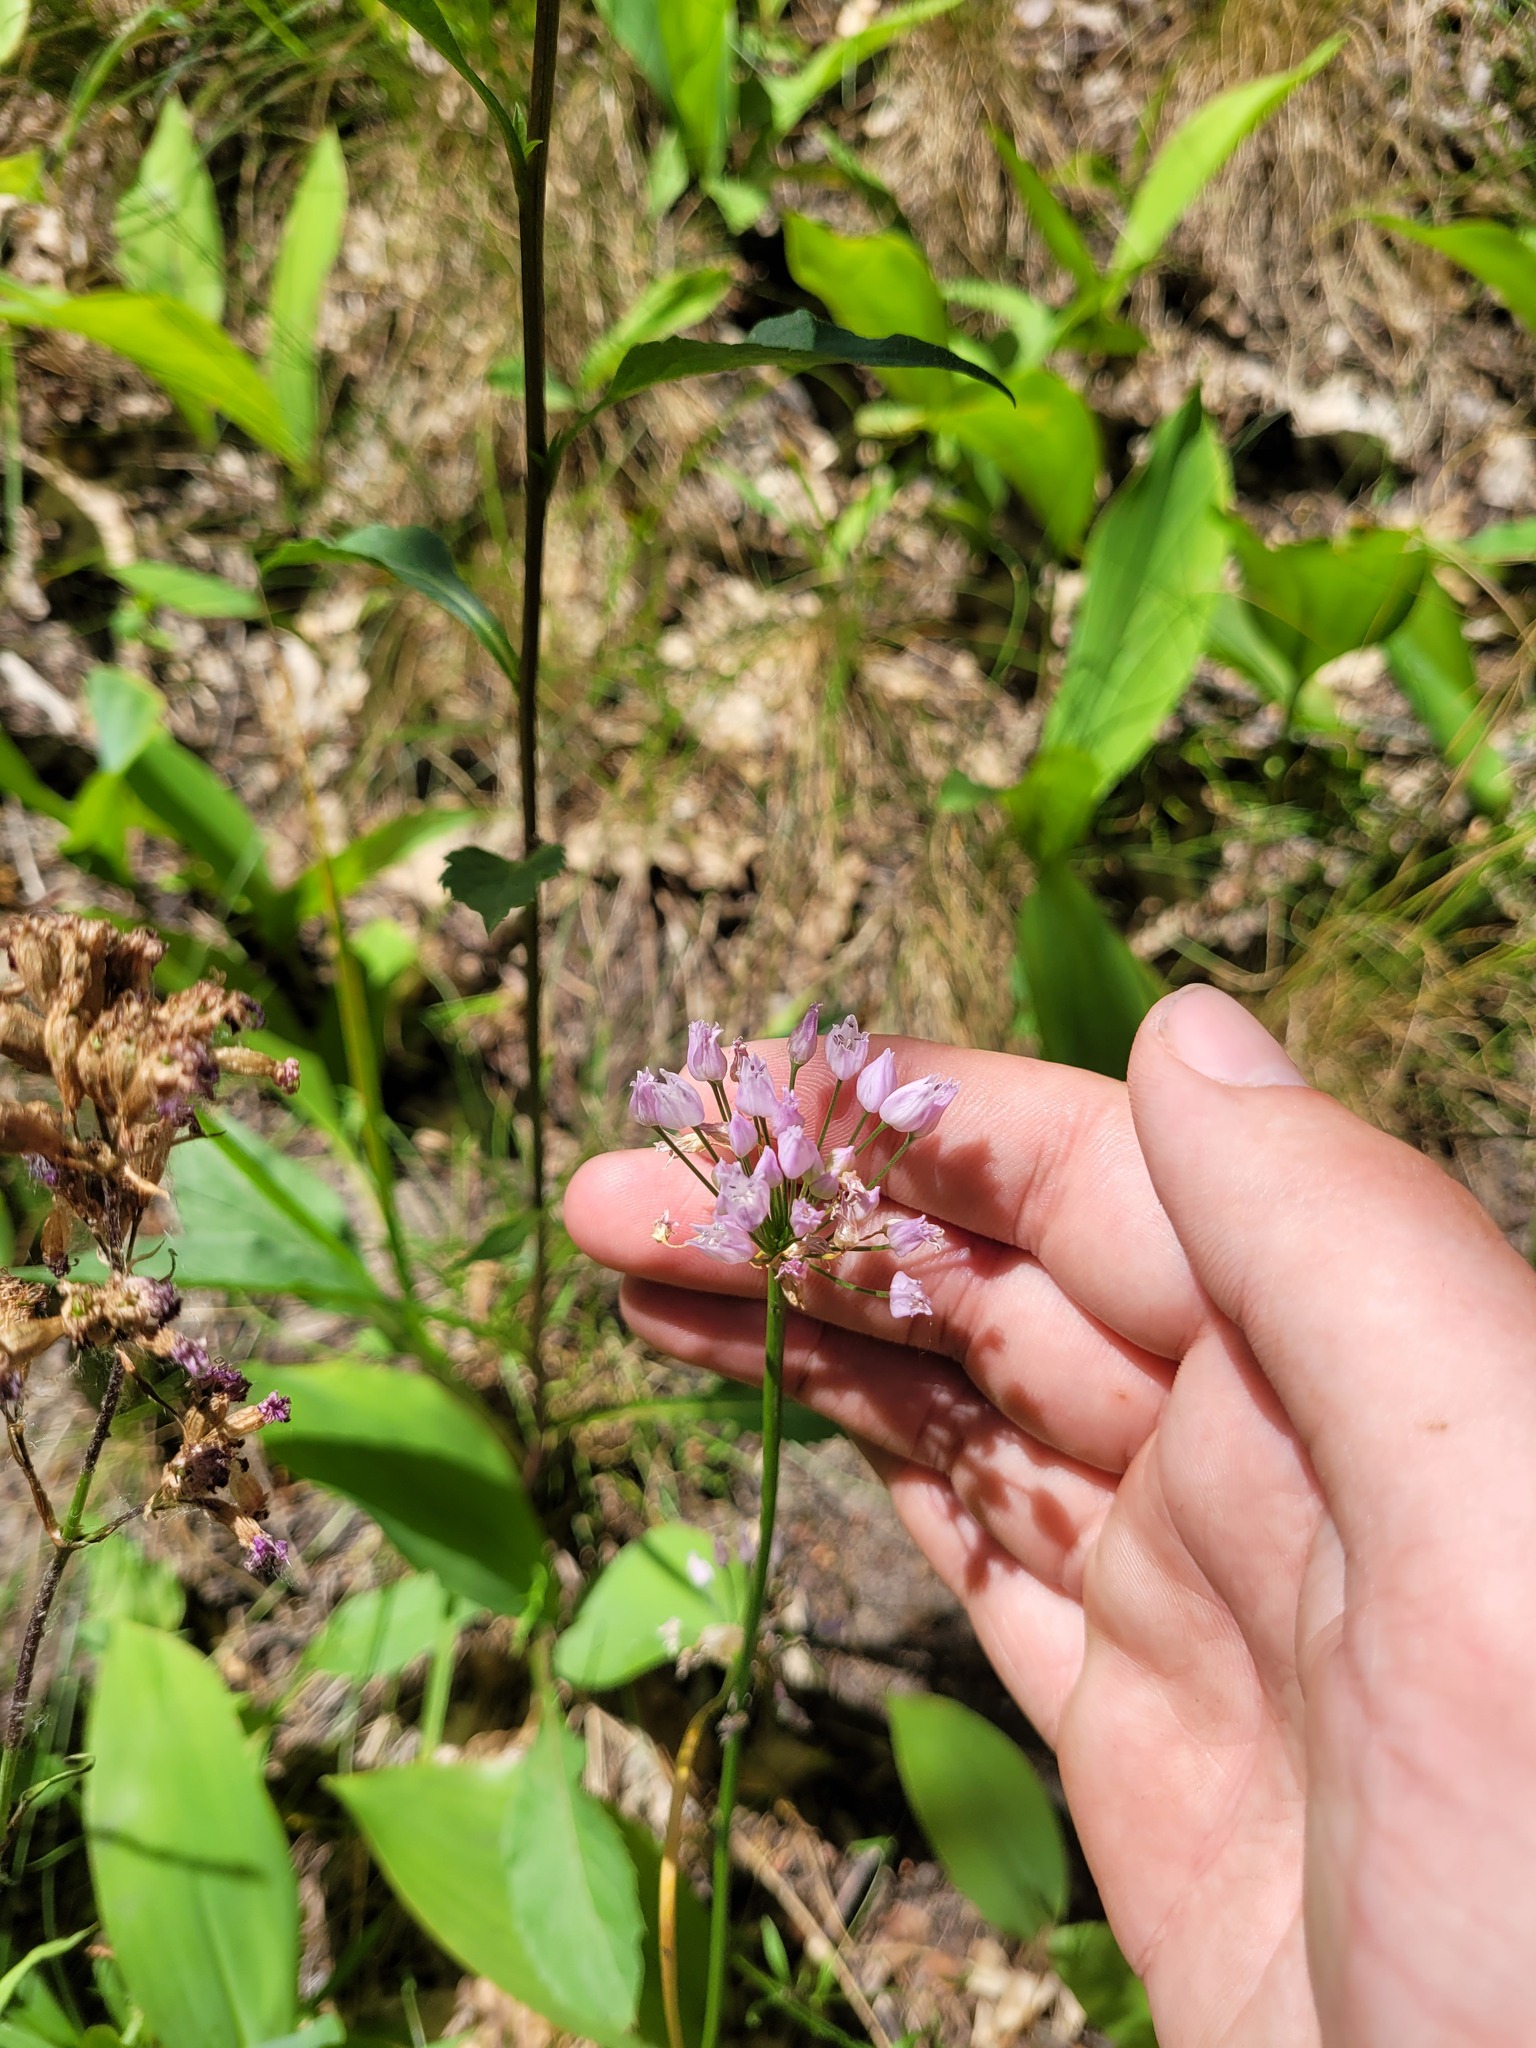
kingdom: Plantae
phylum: Tracheophyta
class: Liliopsida
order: Asparagales
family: Amaryllidaceae
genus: Allium
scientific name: Allium angulosum
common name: Mouse garlic
